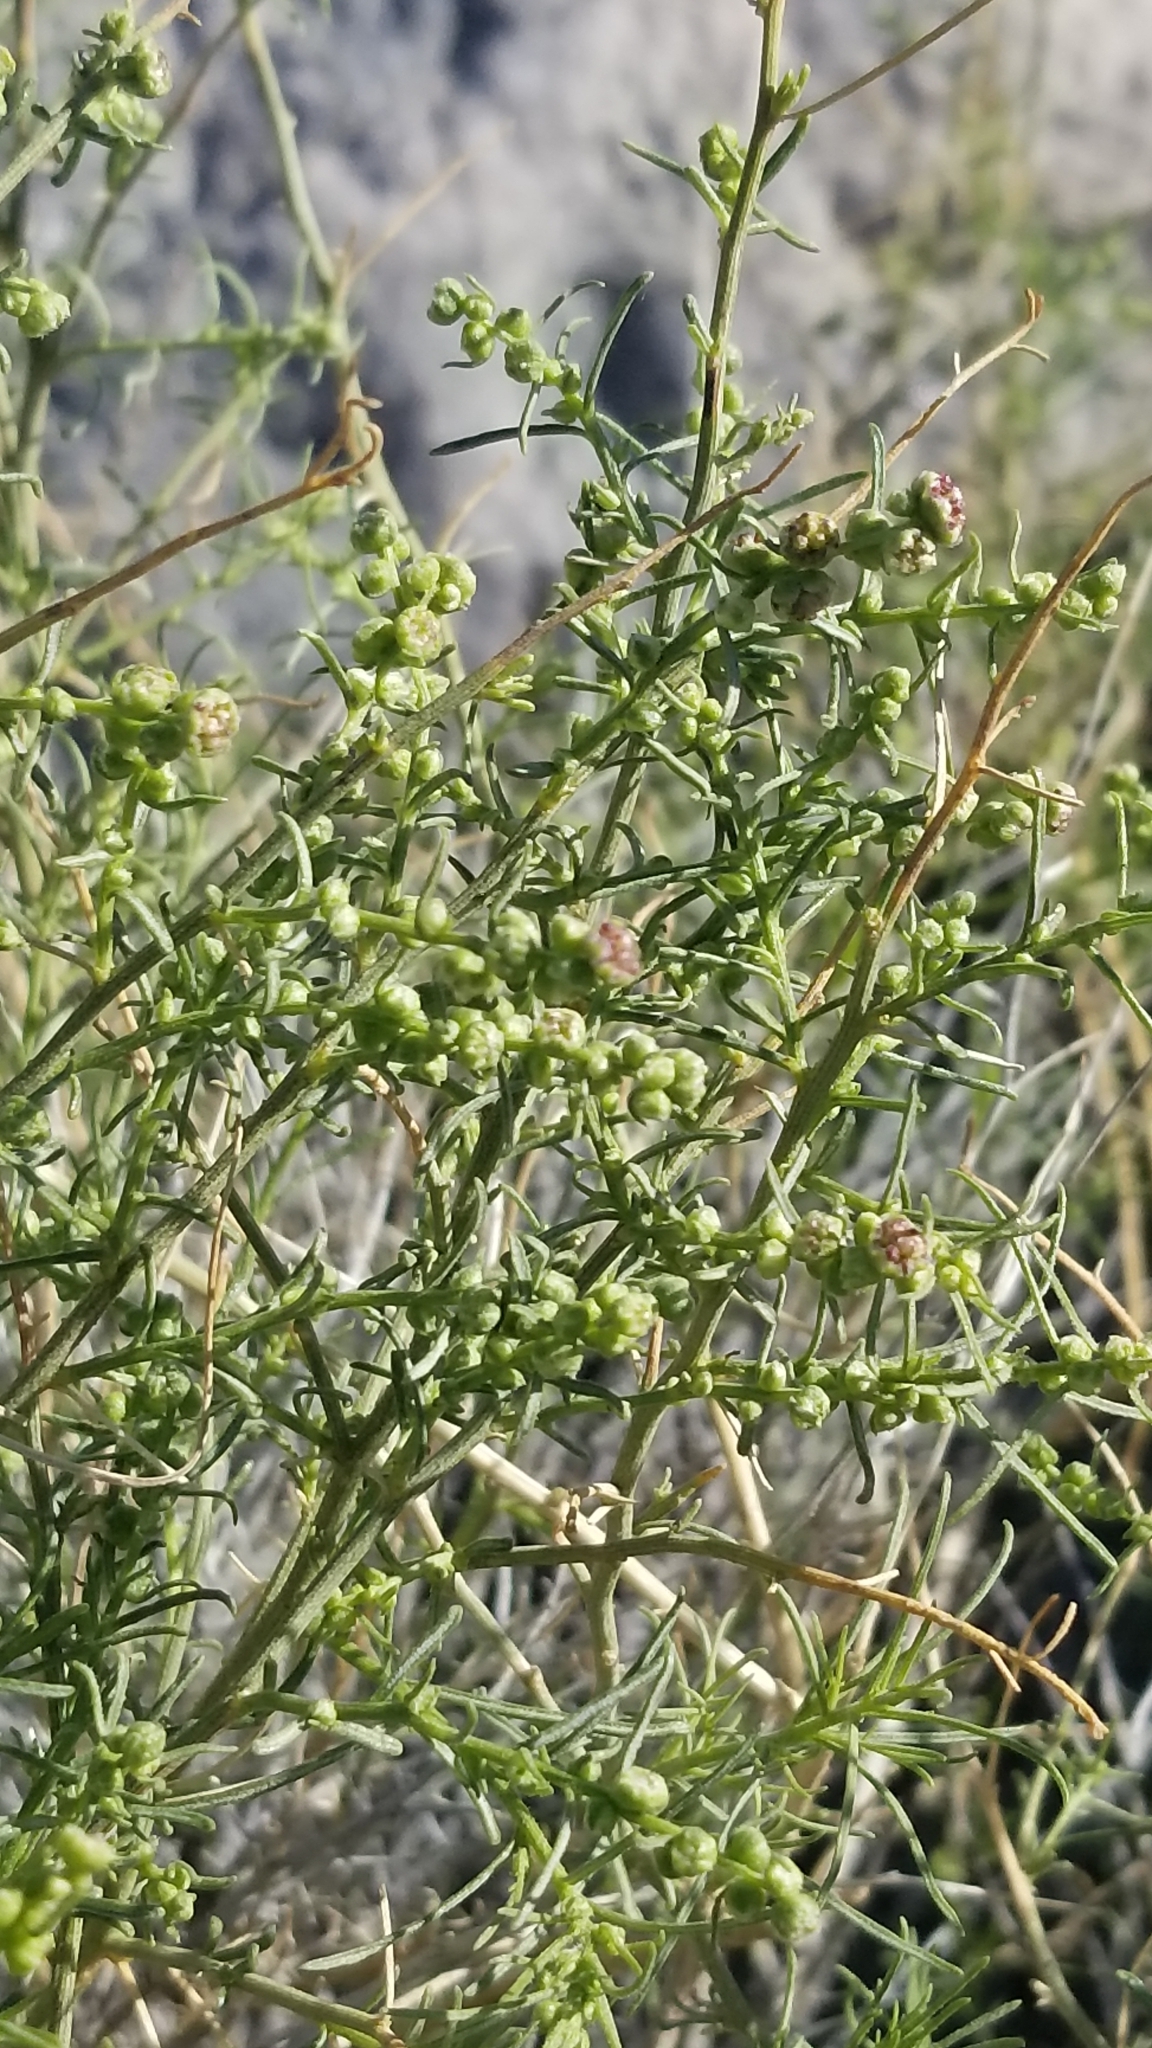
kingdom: Plantae
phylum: Tracheophyta
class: Magnoliopsida
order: Asterales
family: Asteraceae
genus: Ambrosia
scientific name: Ambrosia salsola
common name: Burrobrush
